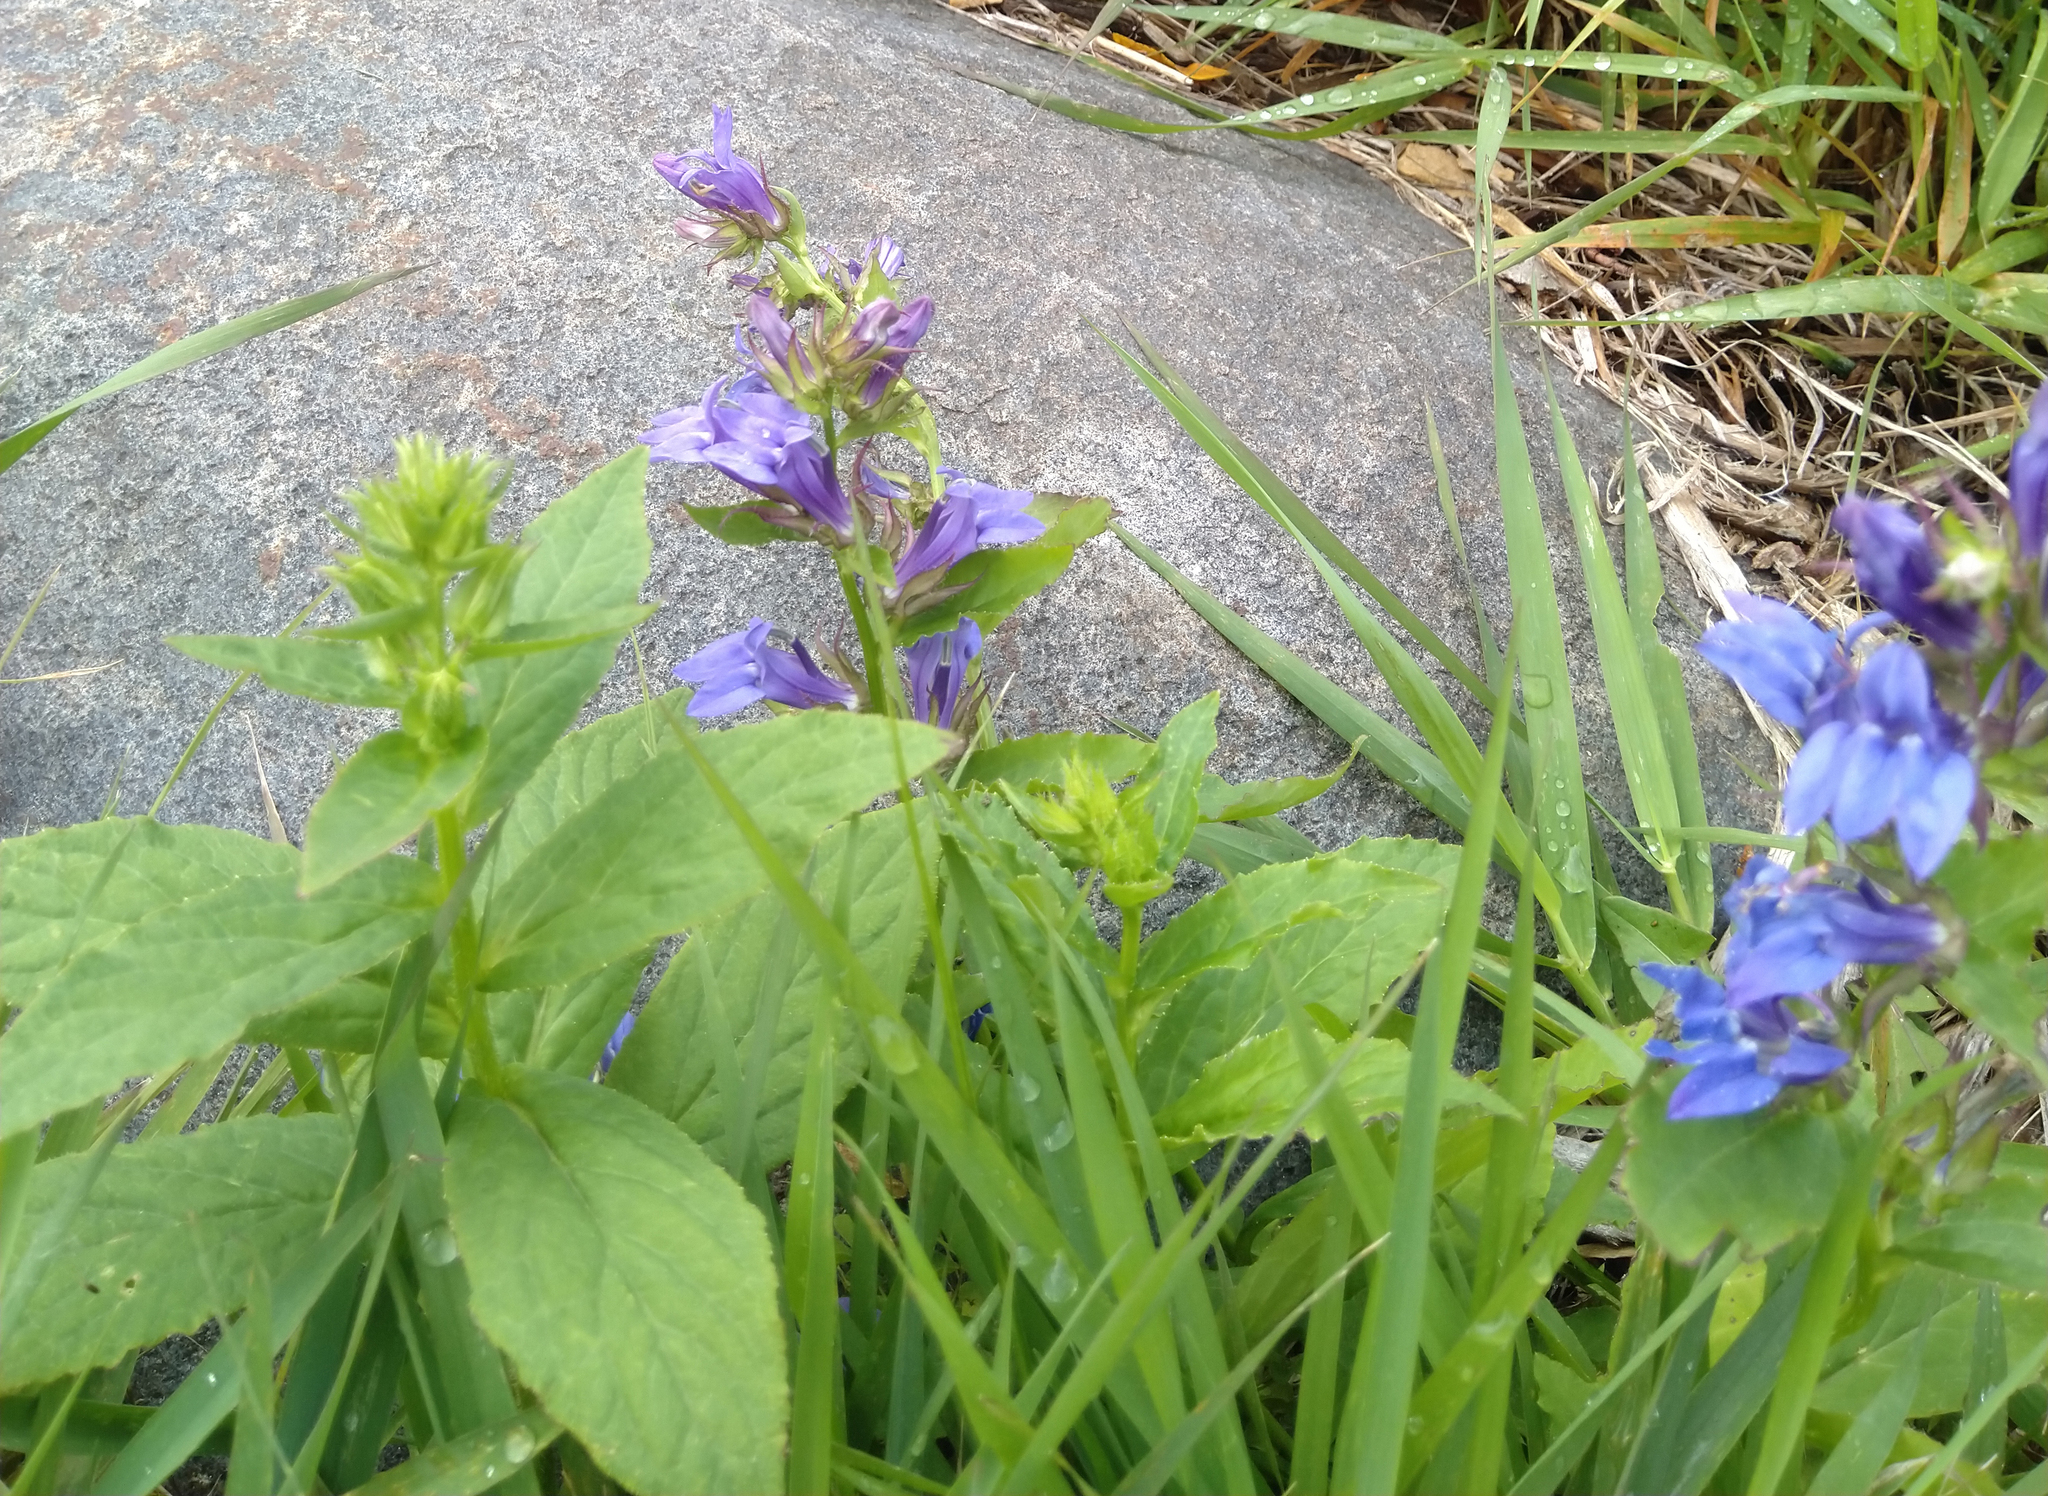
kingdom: Plantae
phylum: Tracheophyta
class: Magnoliopsida
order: Asterales
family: Campanulaceae
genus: Lobelia
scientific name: Lobelia siphilitica
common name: Great lobelia
